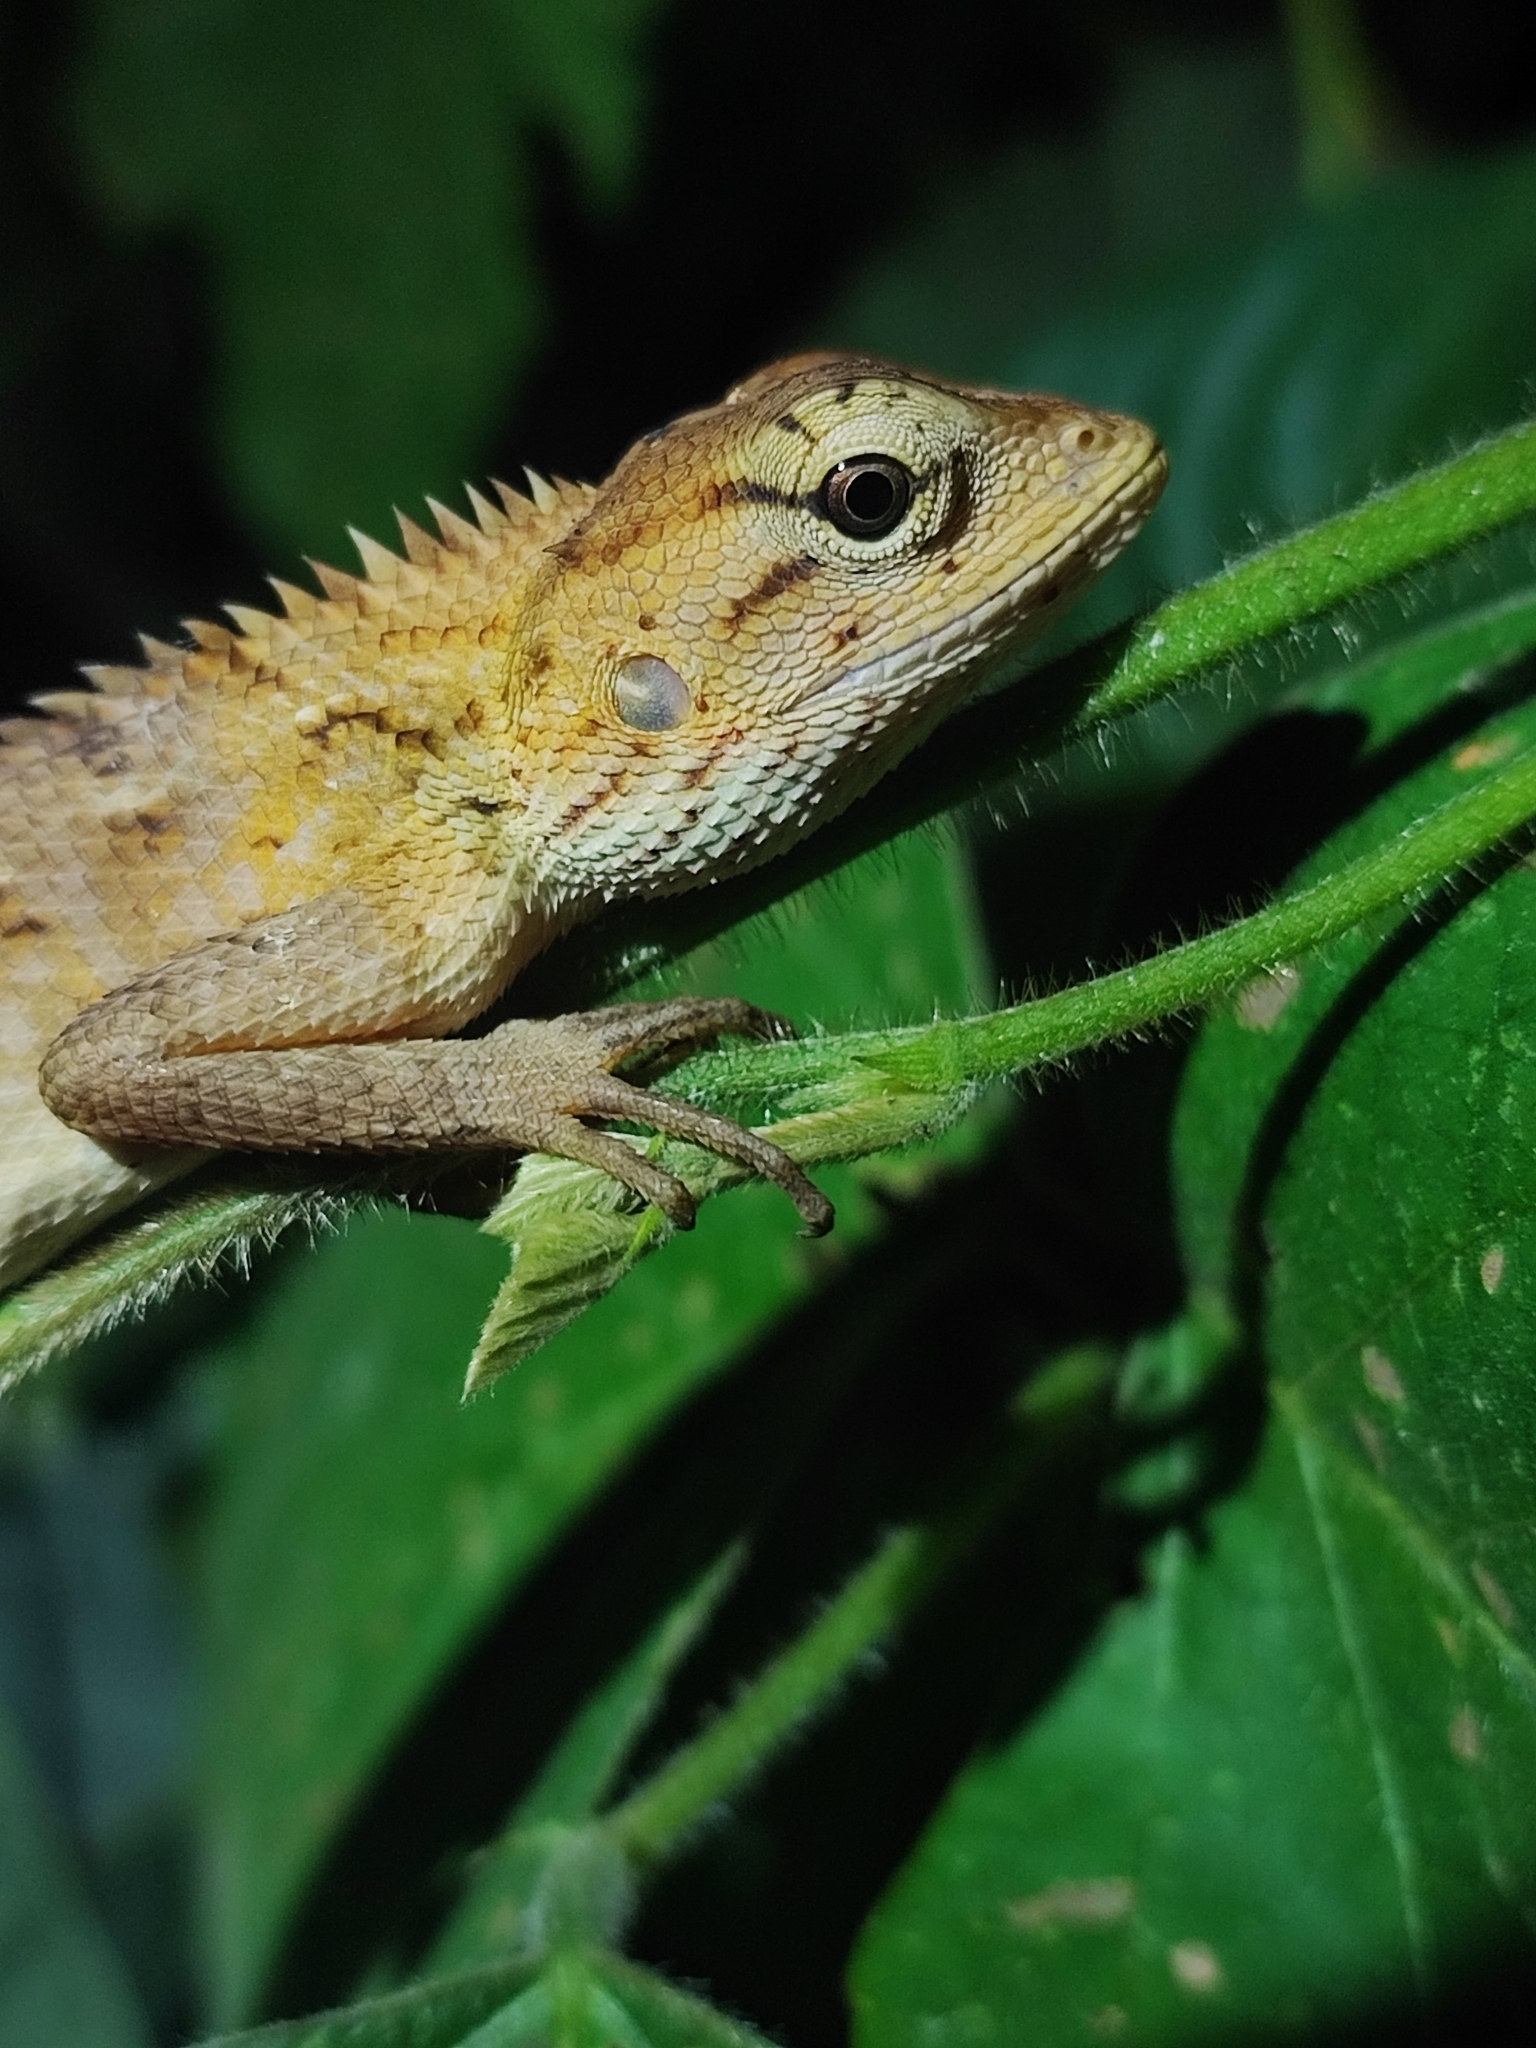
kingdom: Animalia
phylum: Chordata
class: Squamata
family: Agamidae
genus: Calotes
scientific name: Calotes versicolor
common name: Oriental garden lizard
